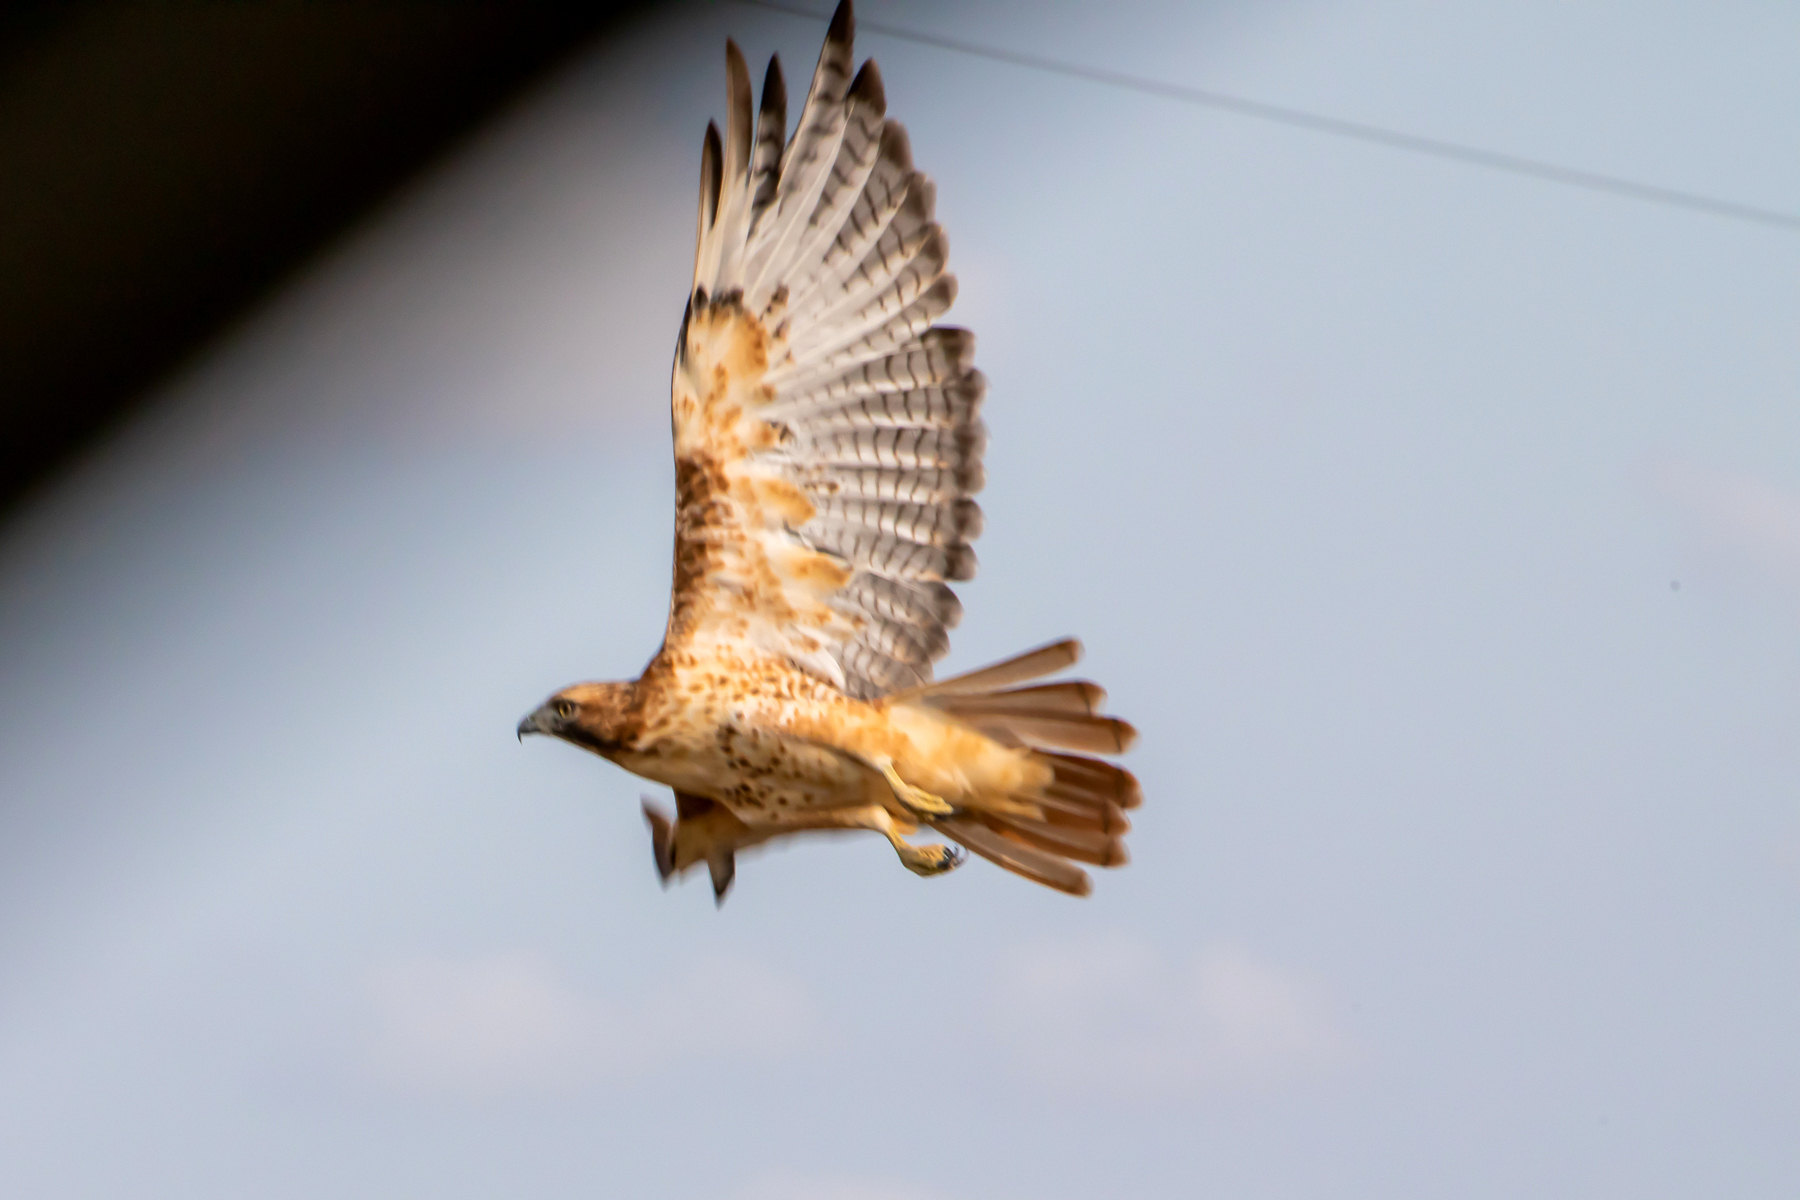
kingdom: Animalia
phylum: Chordata
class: Aves
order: Accipitriformes
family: Accipitridae
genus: Buteo
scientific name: Buteo jamaicensis
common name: Red-tailed hawk
